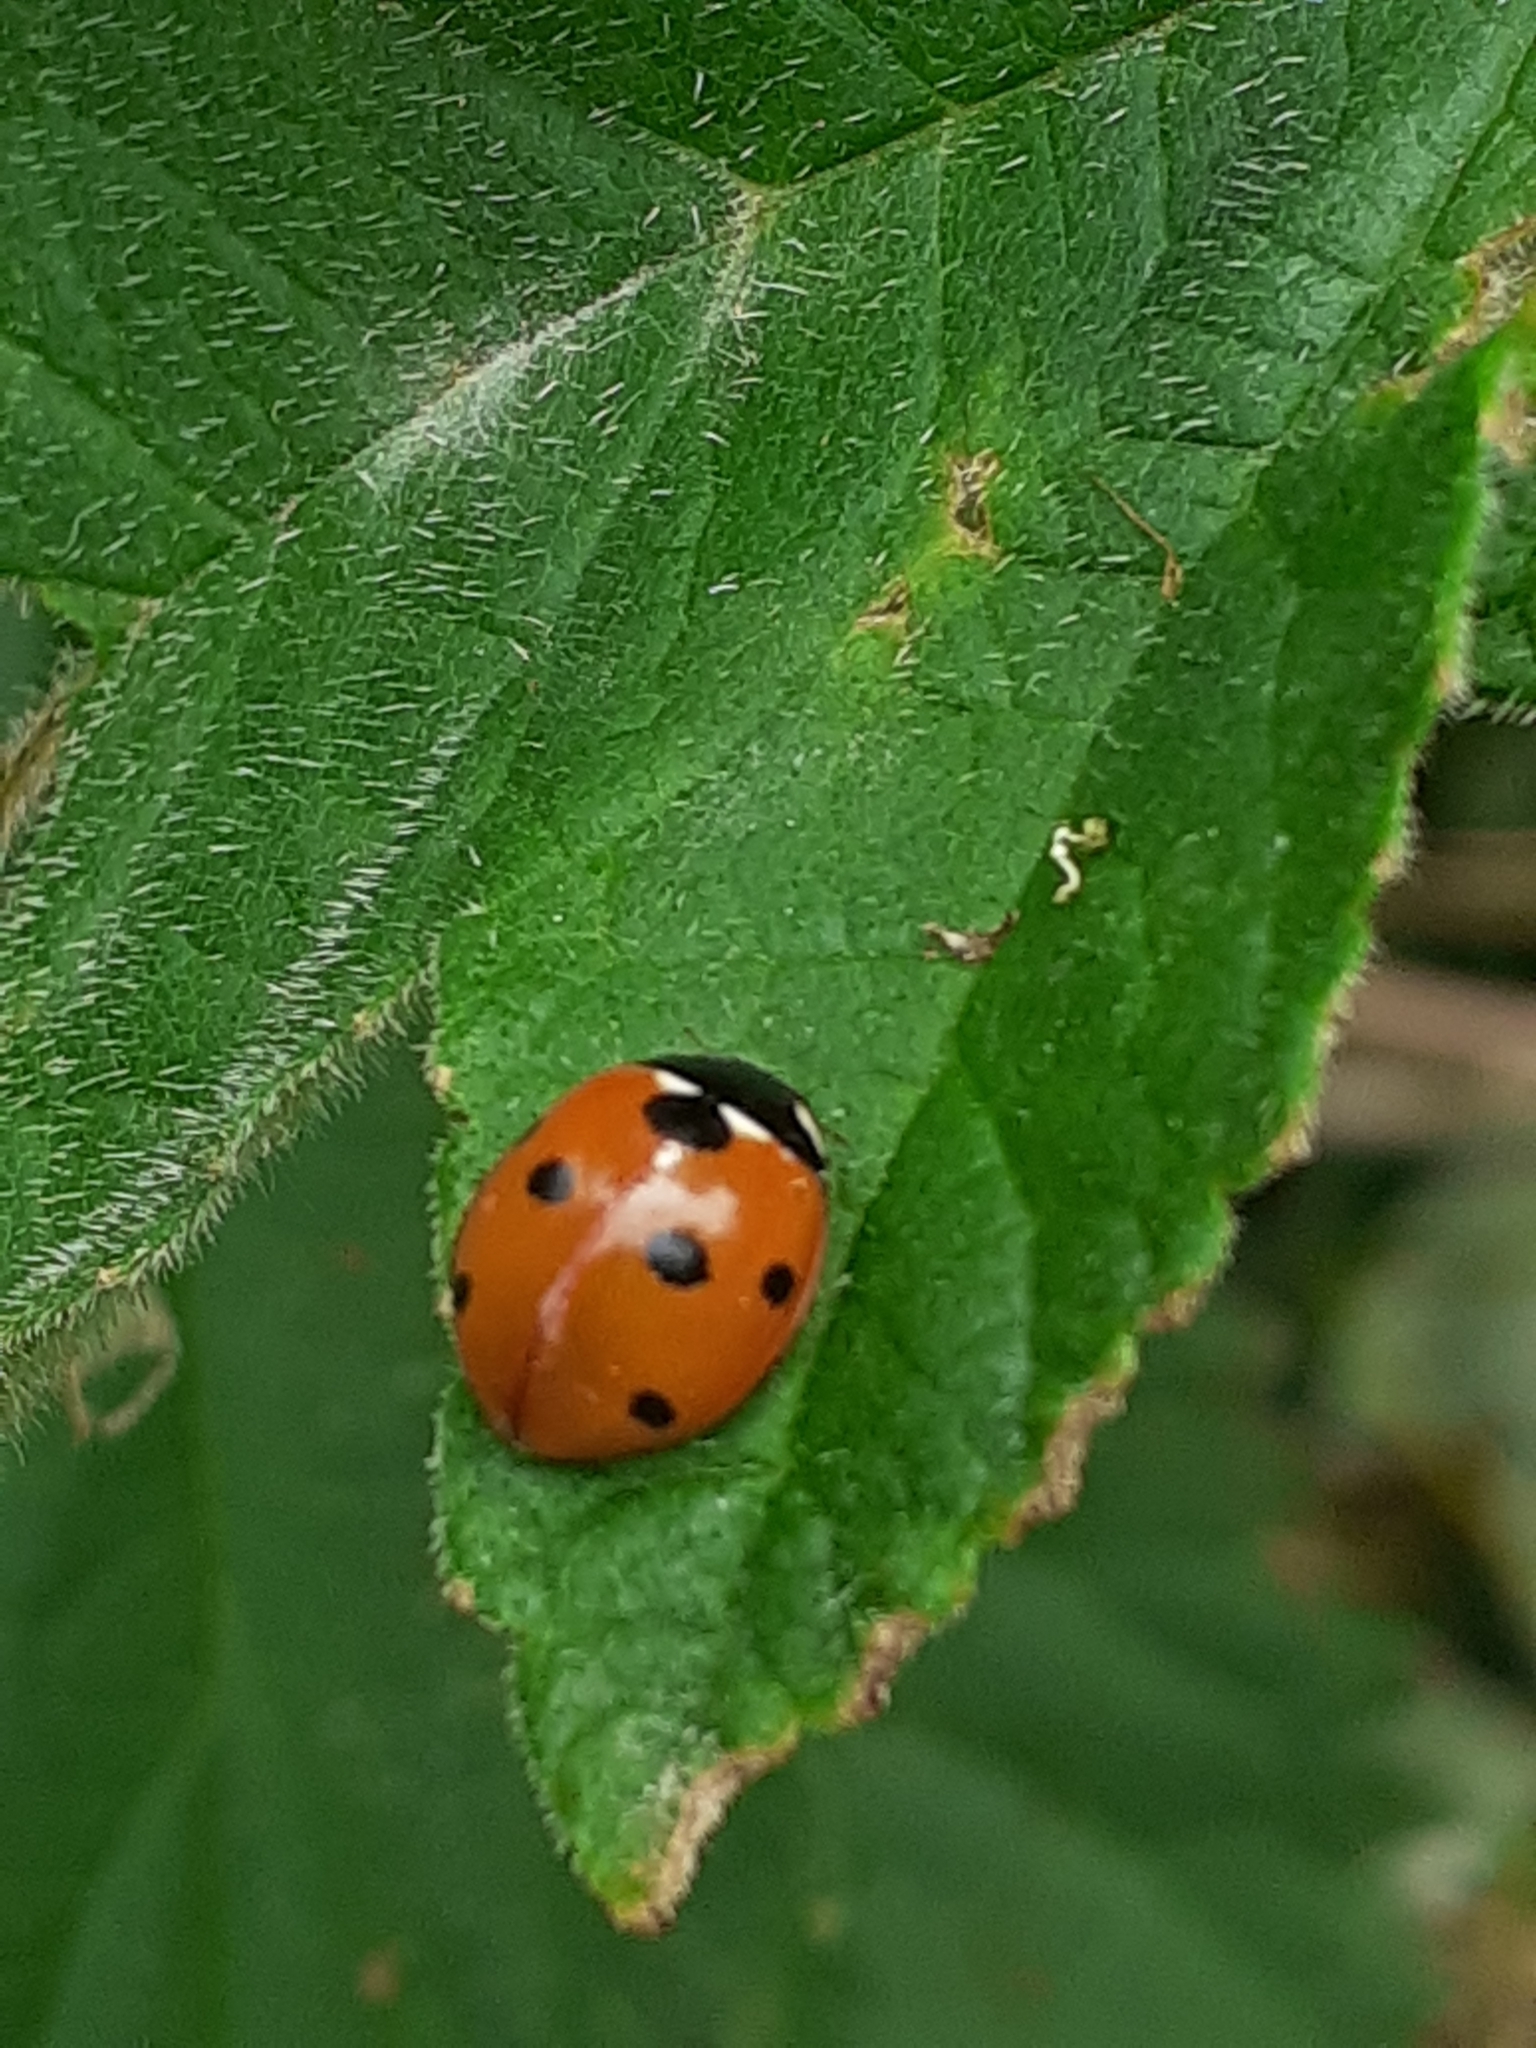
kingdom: Animalia
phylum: Arthropoda
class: Insecta
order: Coleoptera
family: Coccinellidae
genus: Coccinella
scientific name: Coccinella septempunctata
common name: Sevenspotted lady beetle
